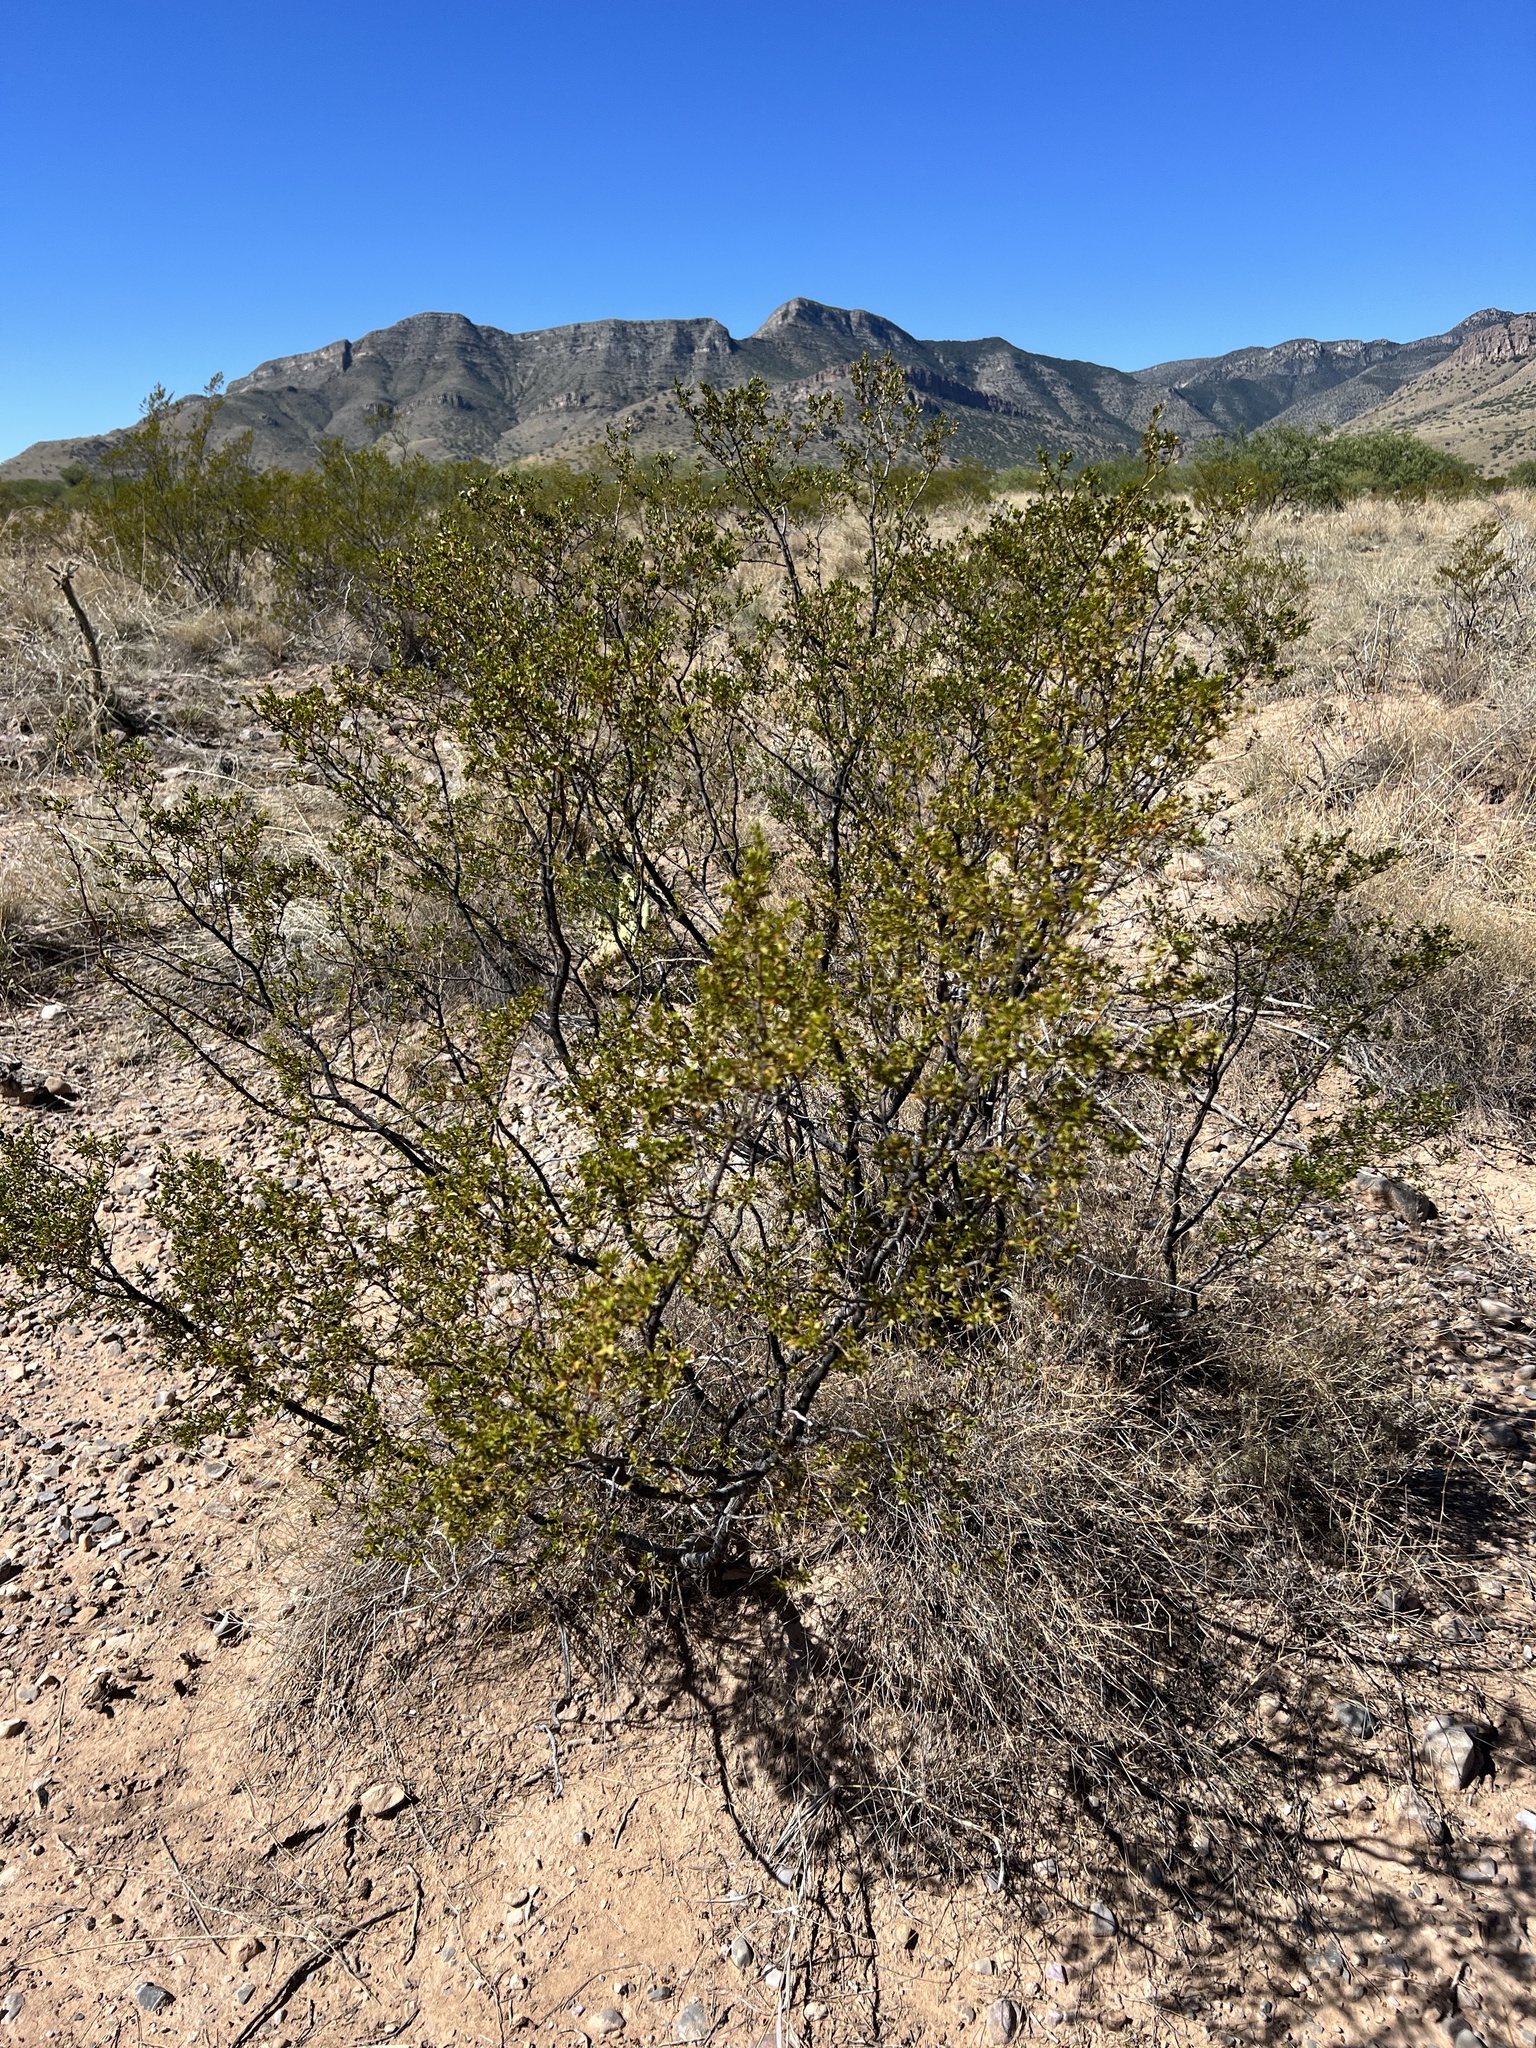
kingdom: Plantae
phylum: Tracheophyta
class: Magnoliopsida
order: Zygophyllales
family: Zygophyllaceae
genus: Larrea
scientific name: Larrea tridentata
